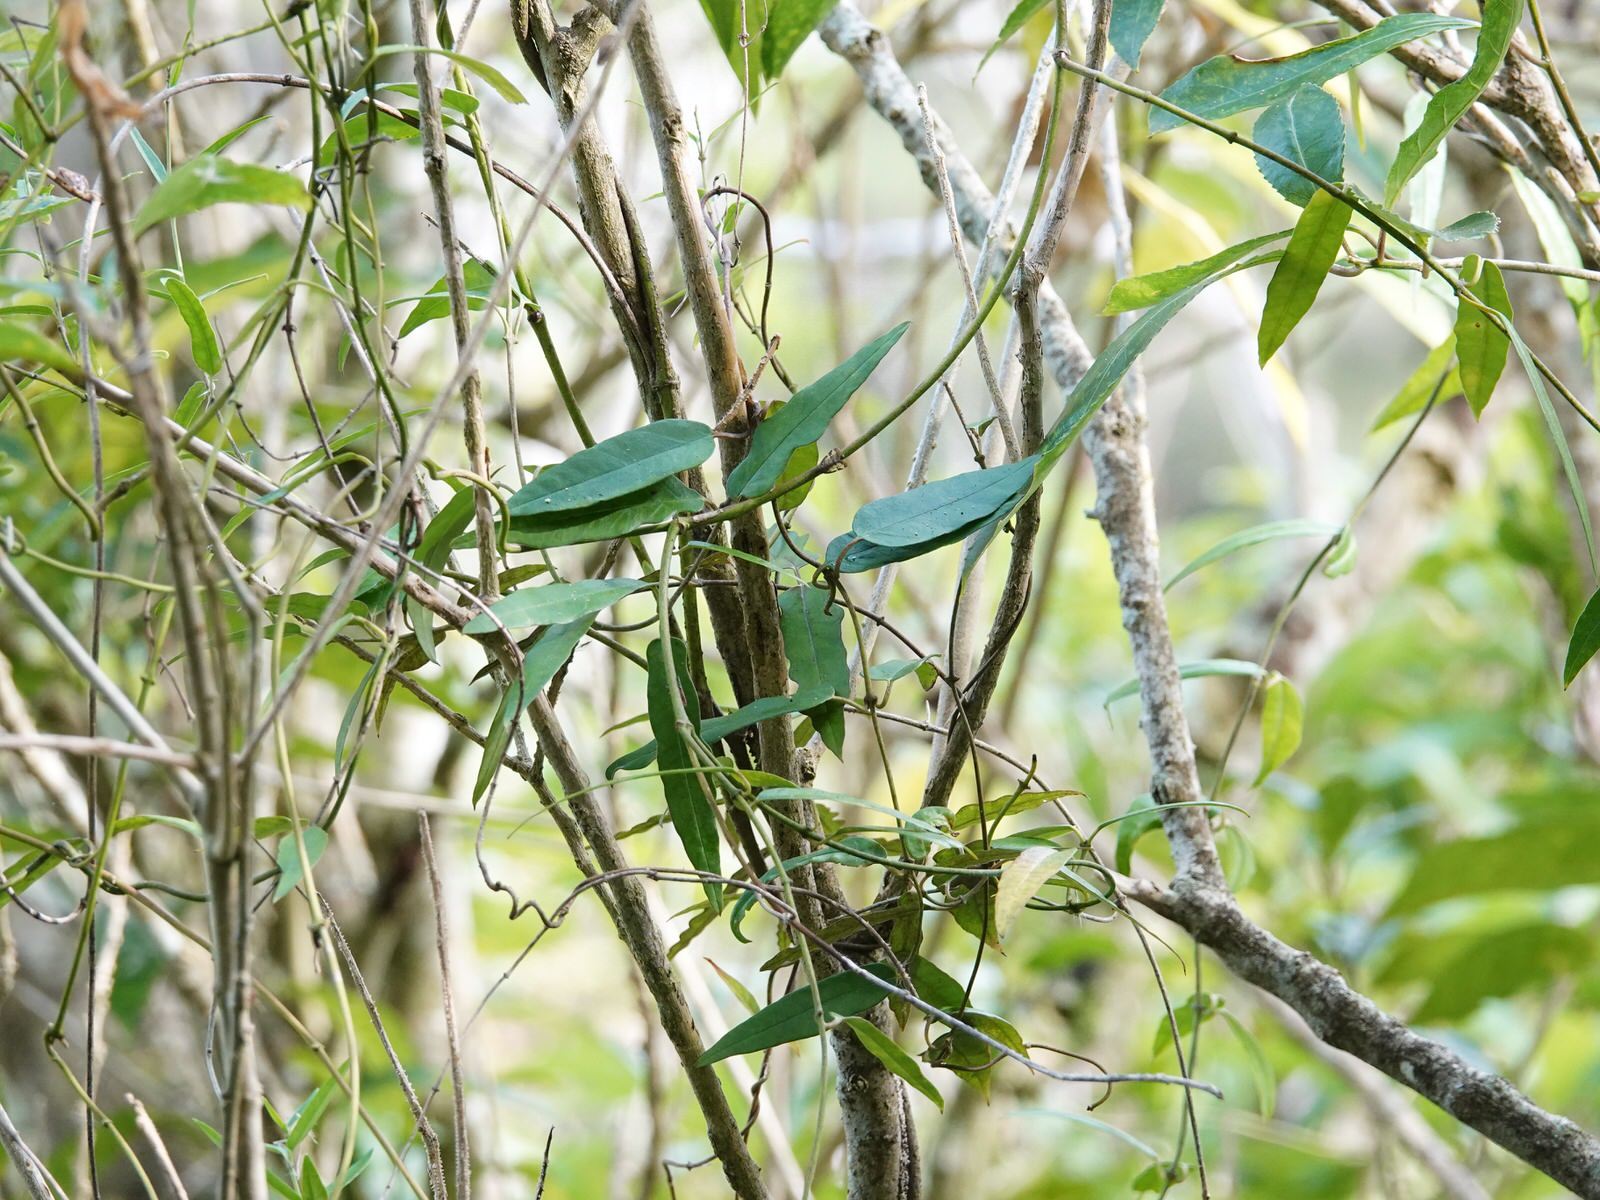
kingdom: Plantae
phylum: Tracheophyta
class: Magnoliopsida
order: Gentianales
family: Apocynaceae
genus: Parsonsia
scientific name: Parsonsia heterophylla
